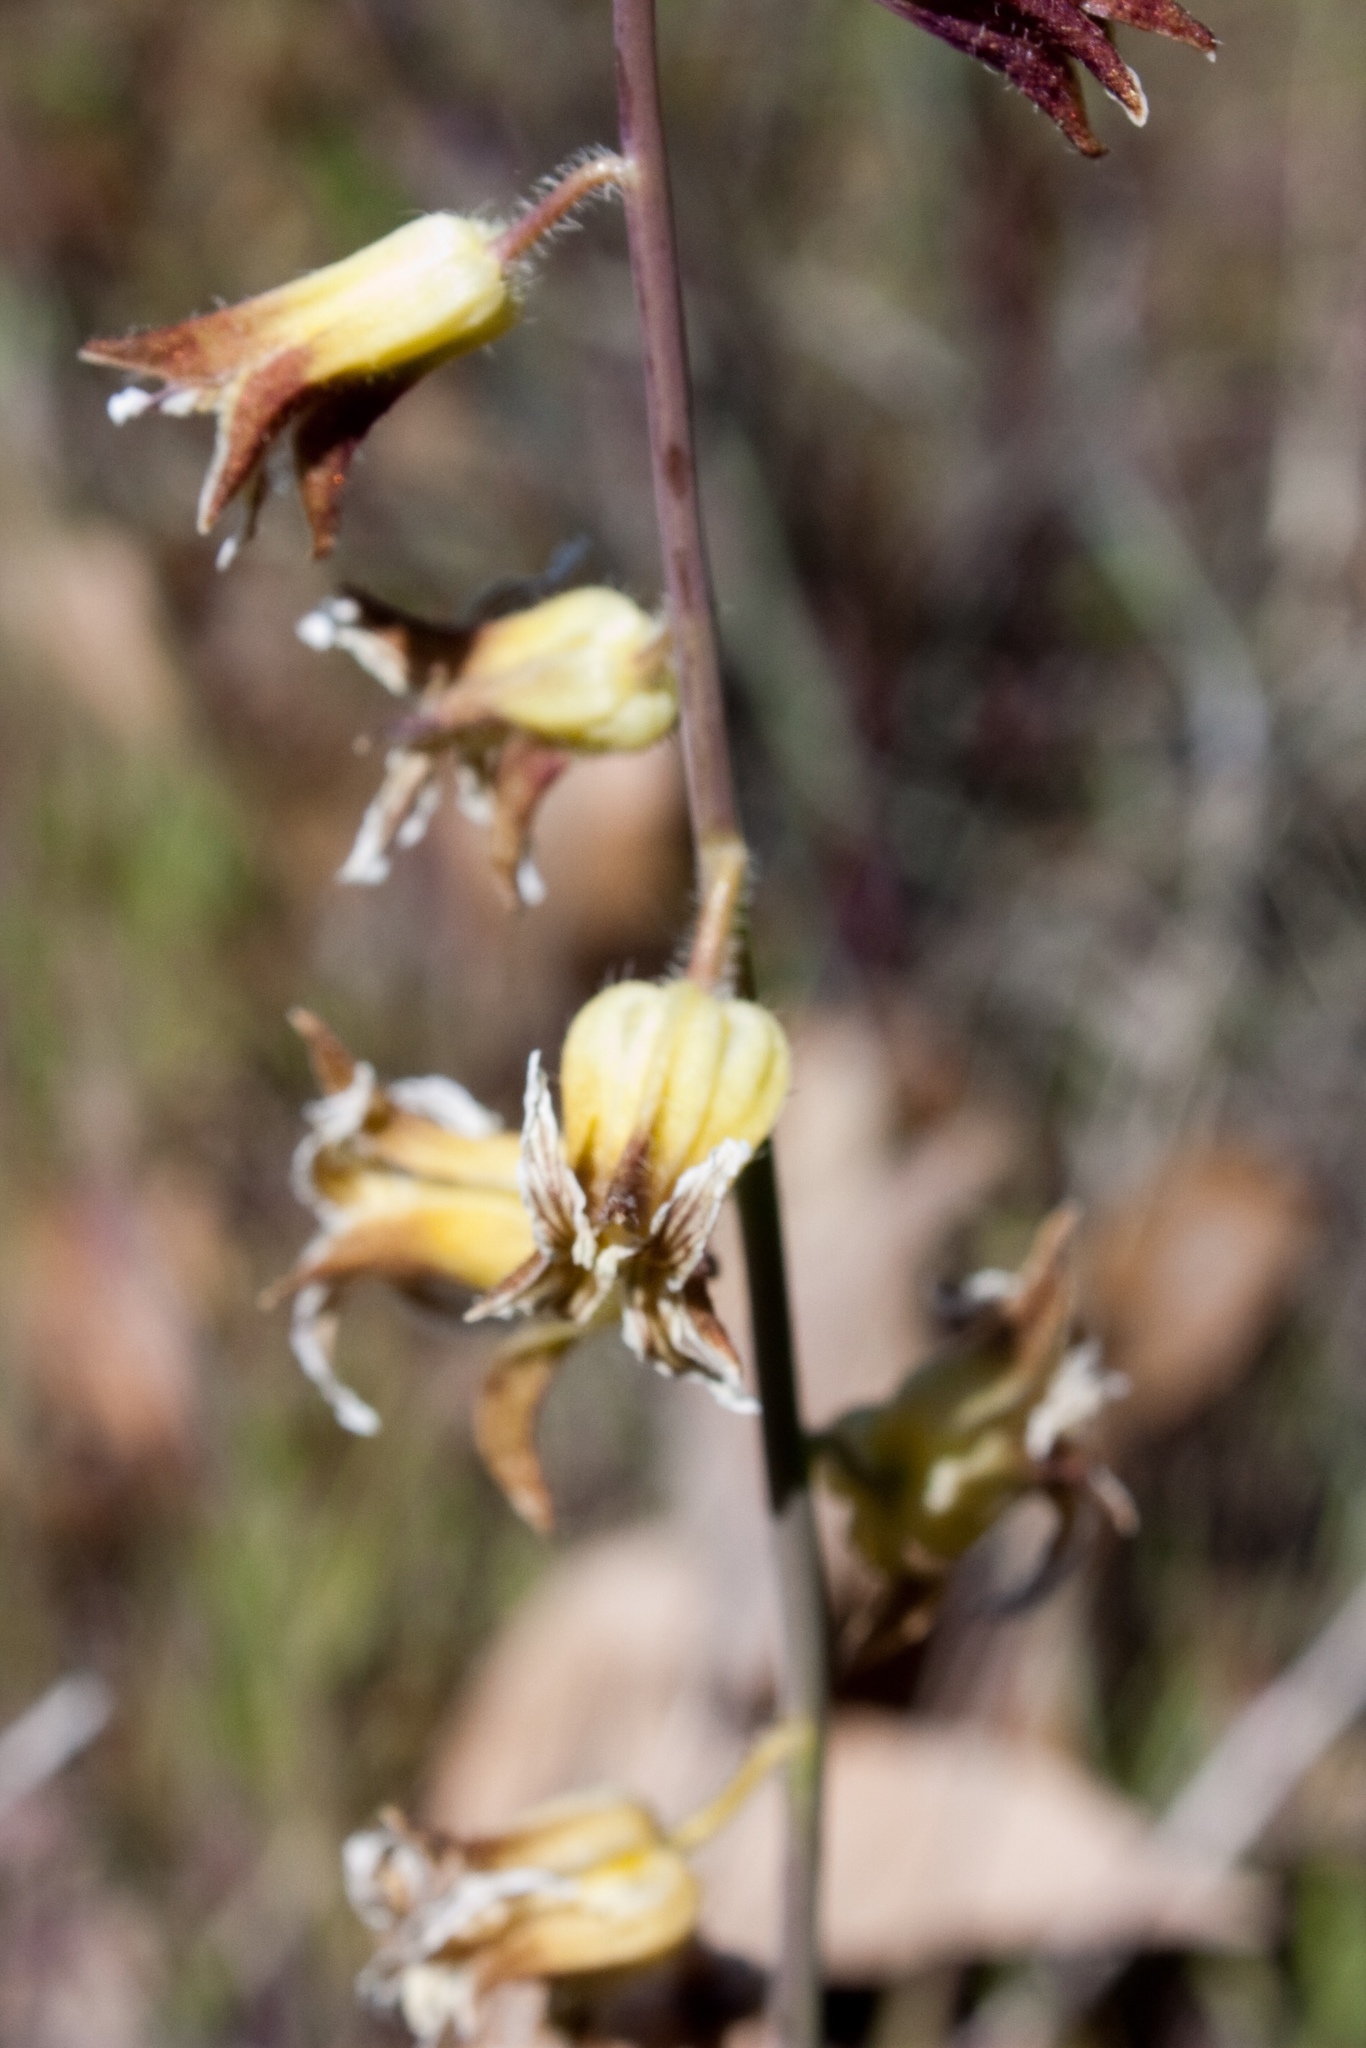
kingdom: Plantae
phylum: Tracheophyta
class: Magnoliopsida
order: Brassicales
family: Brassicaceae
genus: Streptanthus
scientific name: Streptanthus lemmonii
